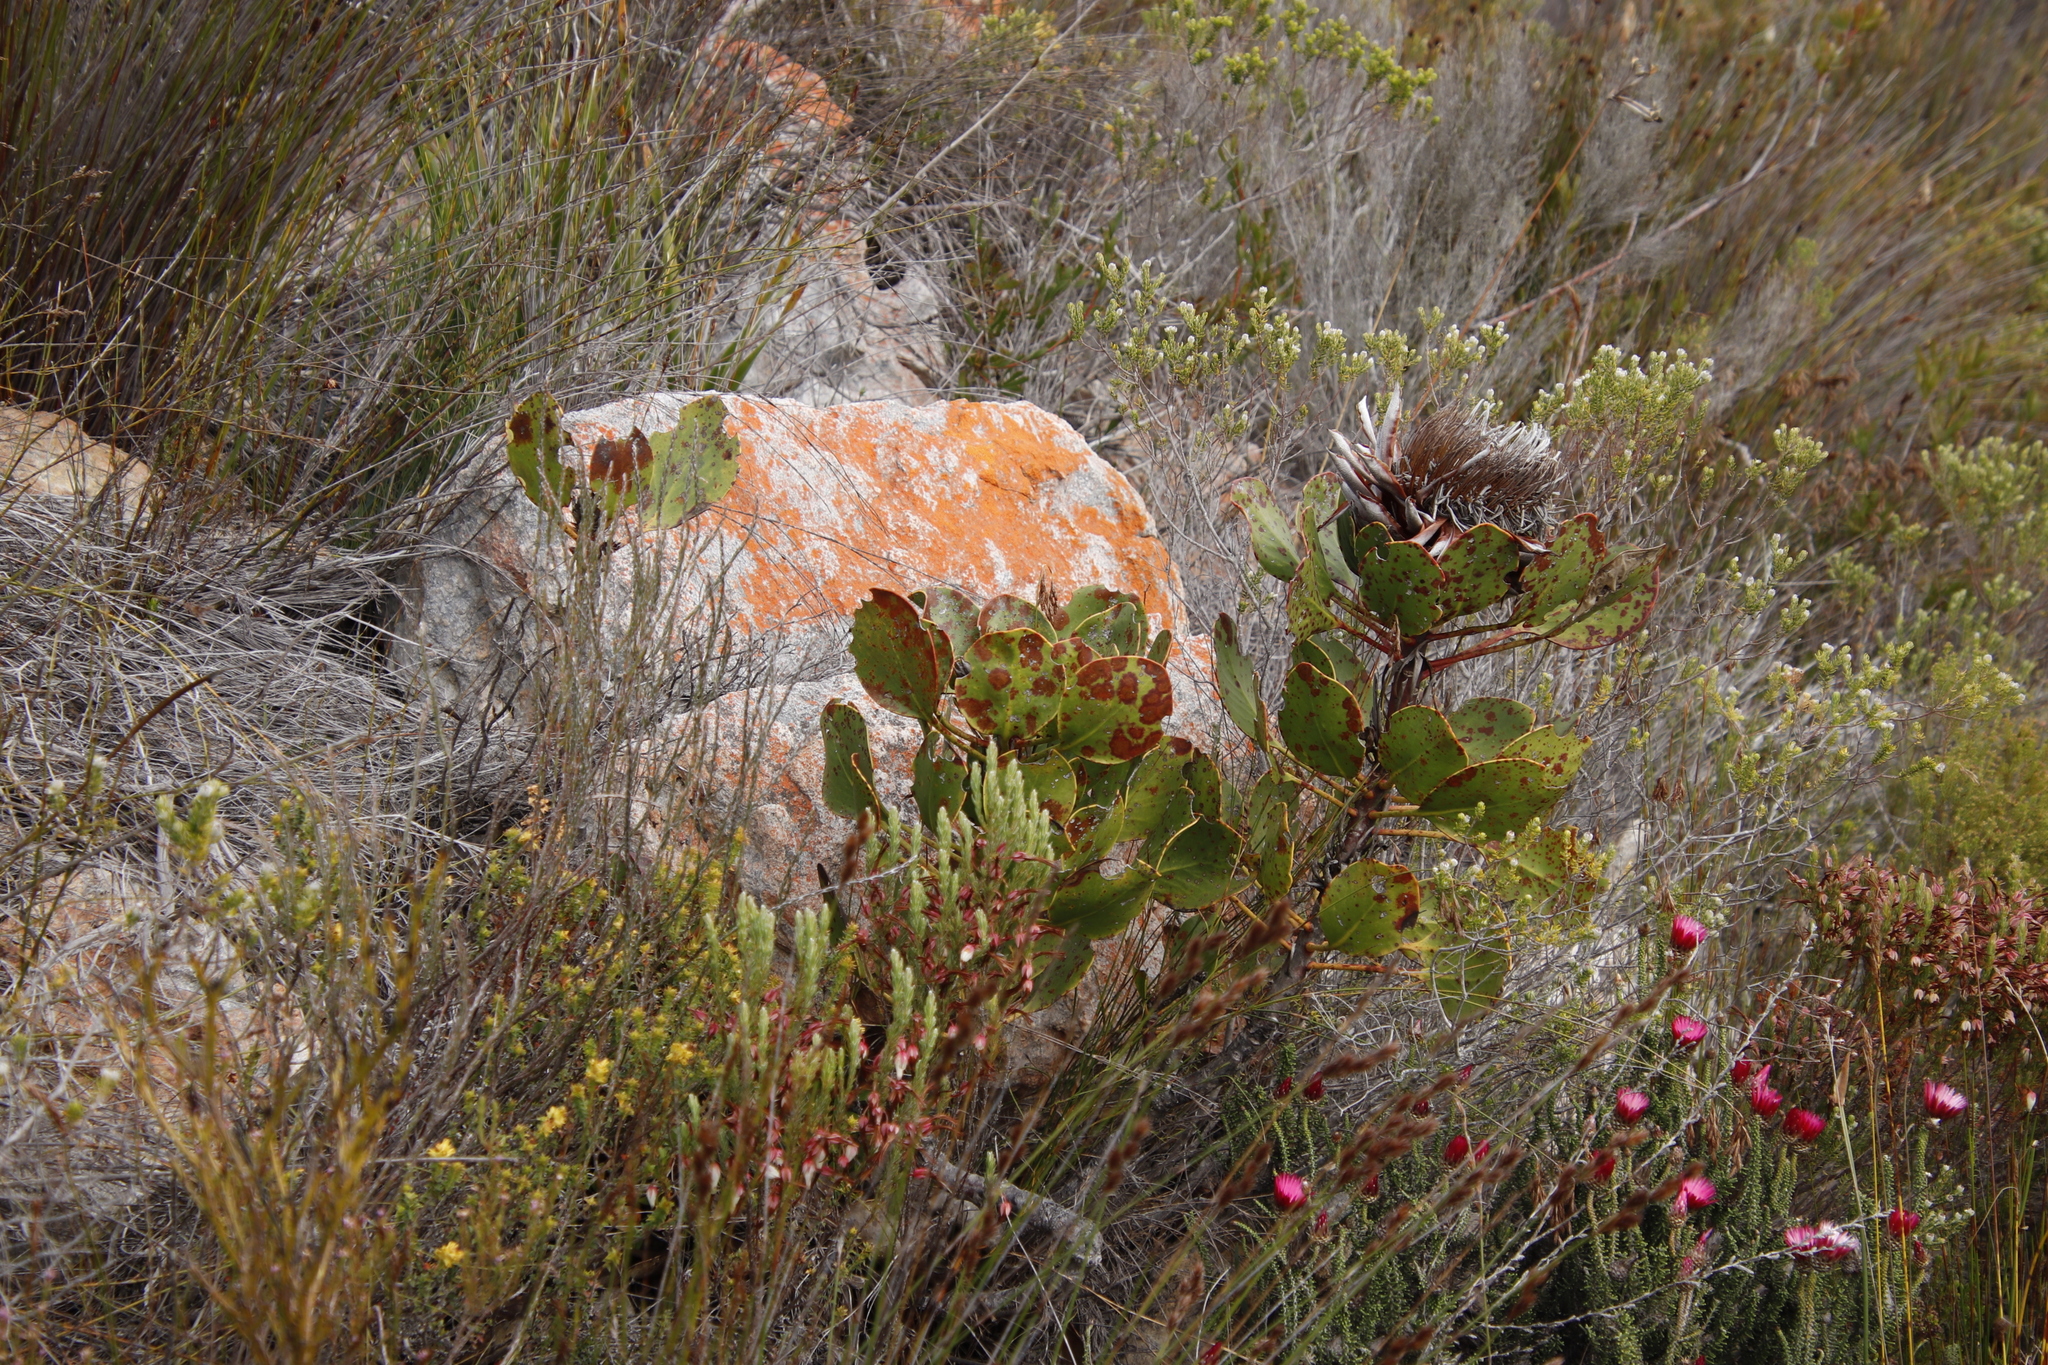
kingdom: Plantae
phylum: Tracheophyta
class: Magnoliopsida
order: Proteales
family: Proteaceae
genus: Protea
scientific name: Protea cynaroides
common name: King protea
